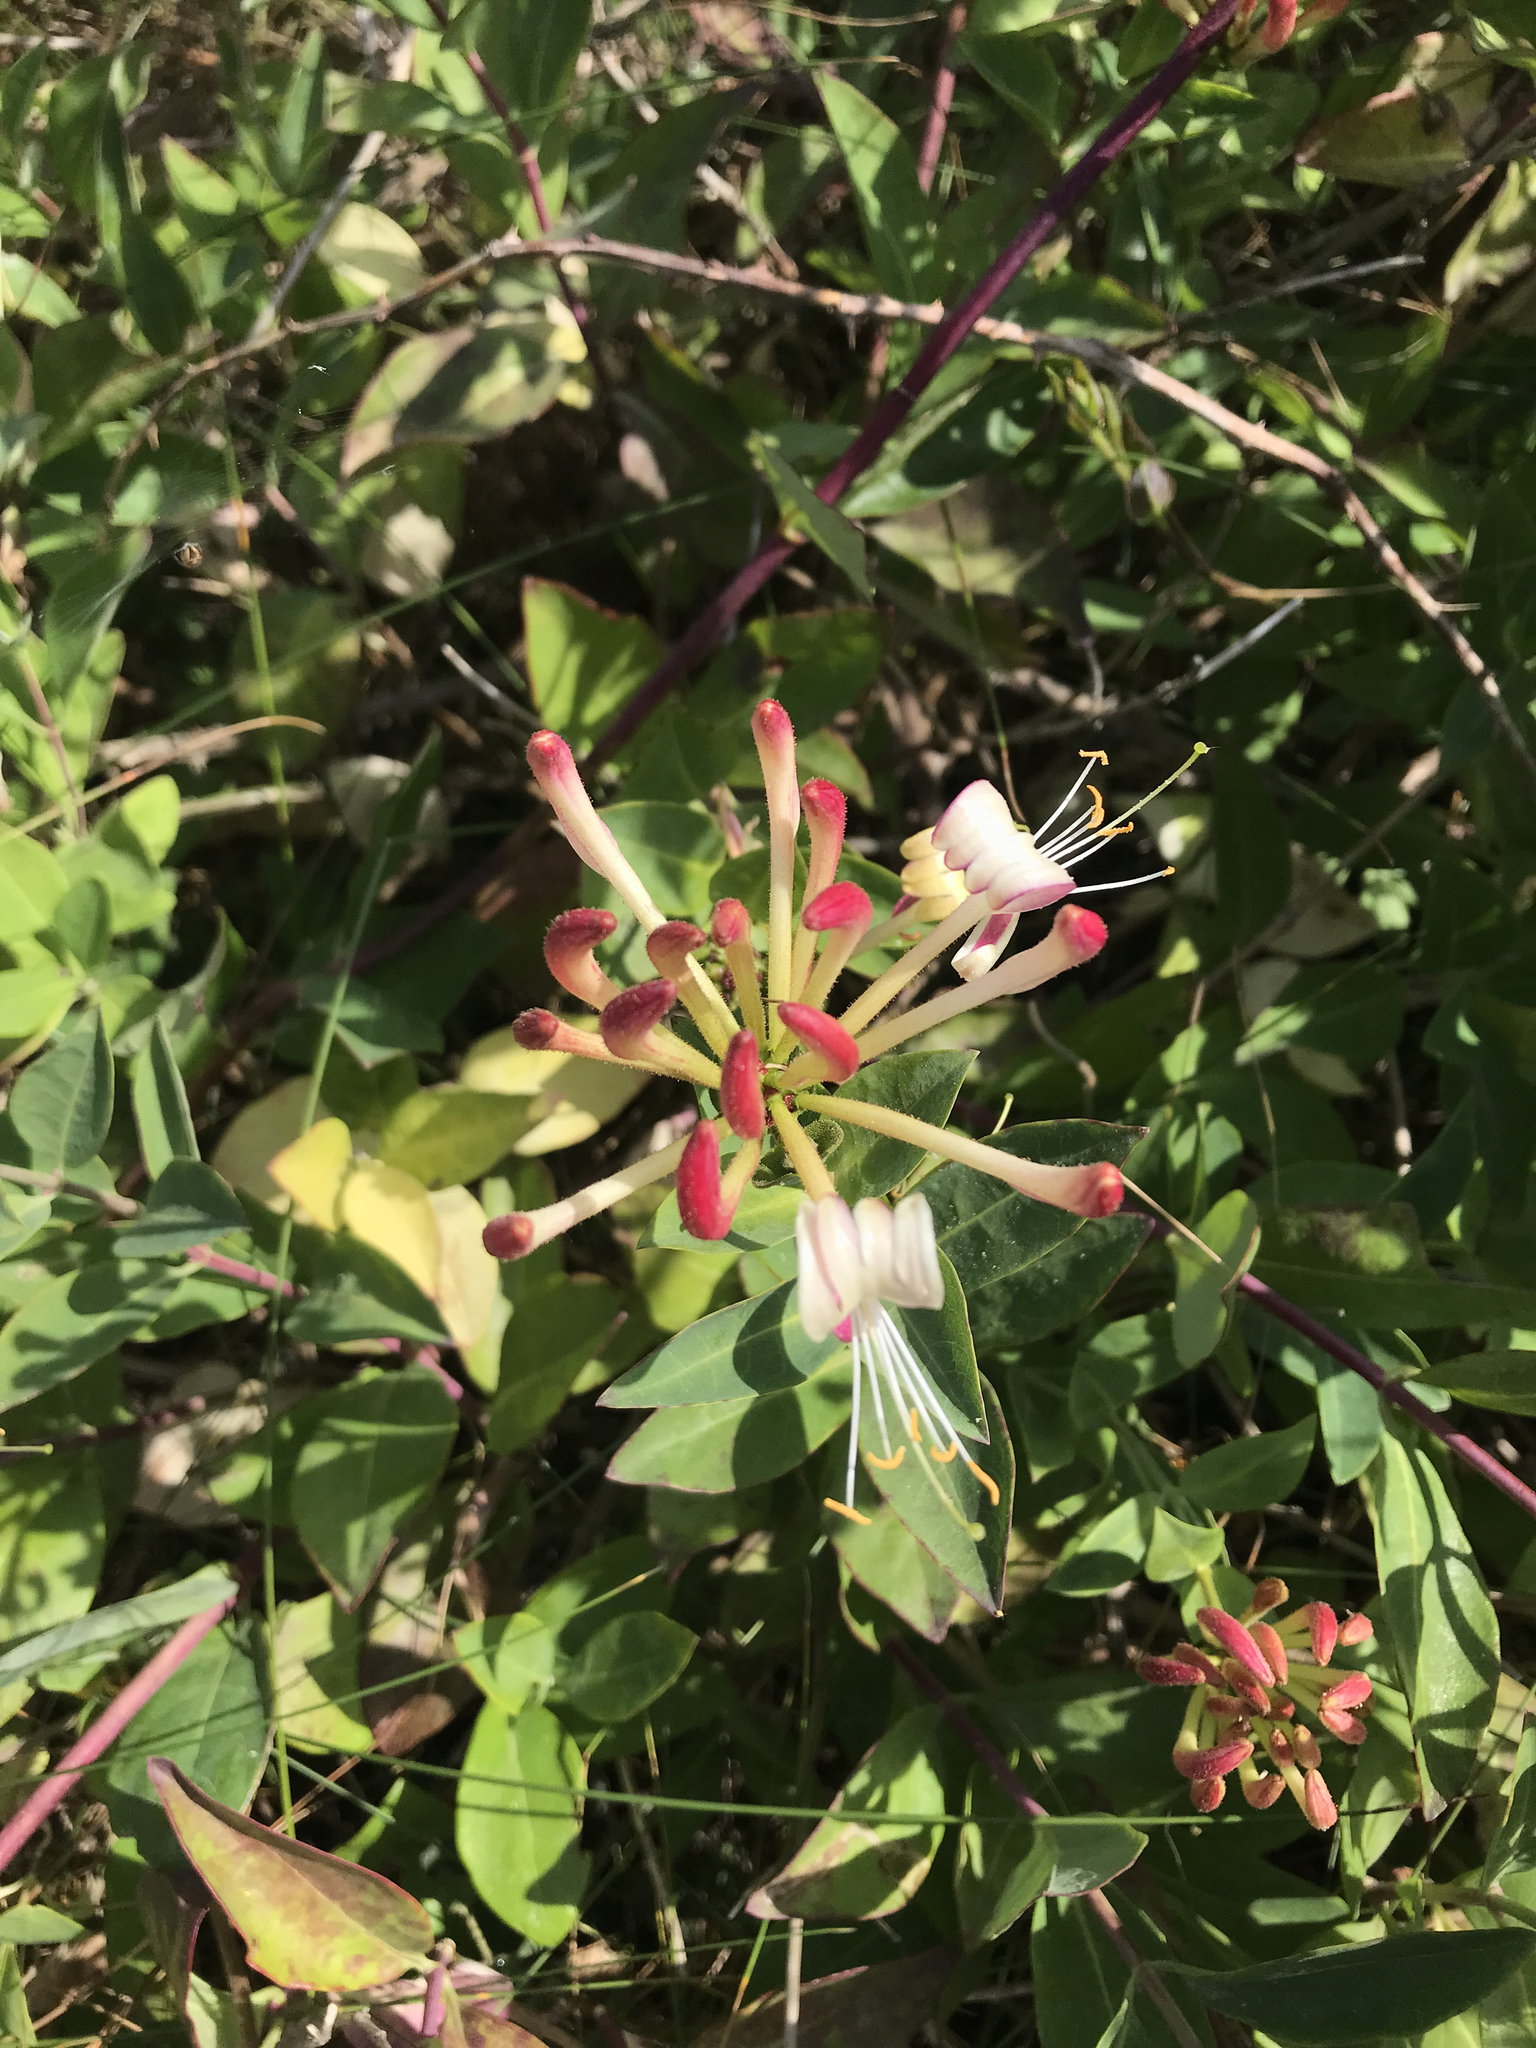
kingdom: Plantae
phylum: Tracheophyta
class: Magnoliopsida
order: Dipsacales
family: Caprifoliaceae
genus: Lonicera
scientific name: Lonicera periclymenum
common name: European honeysuckle
